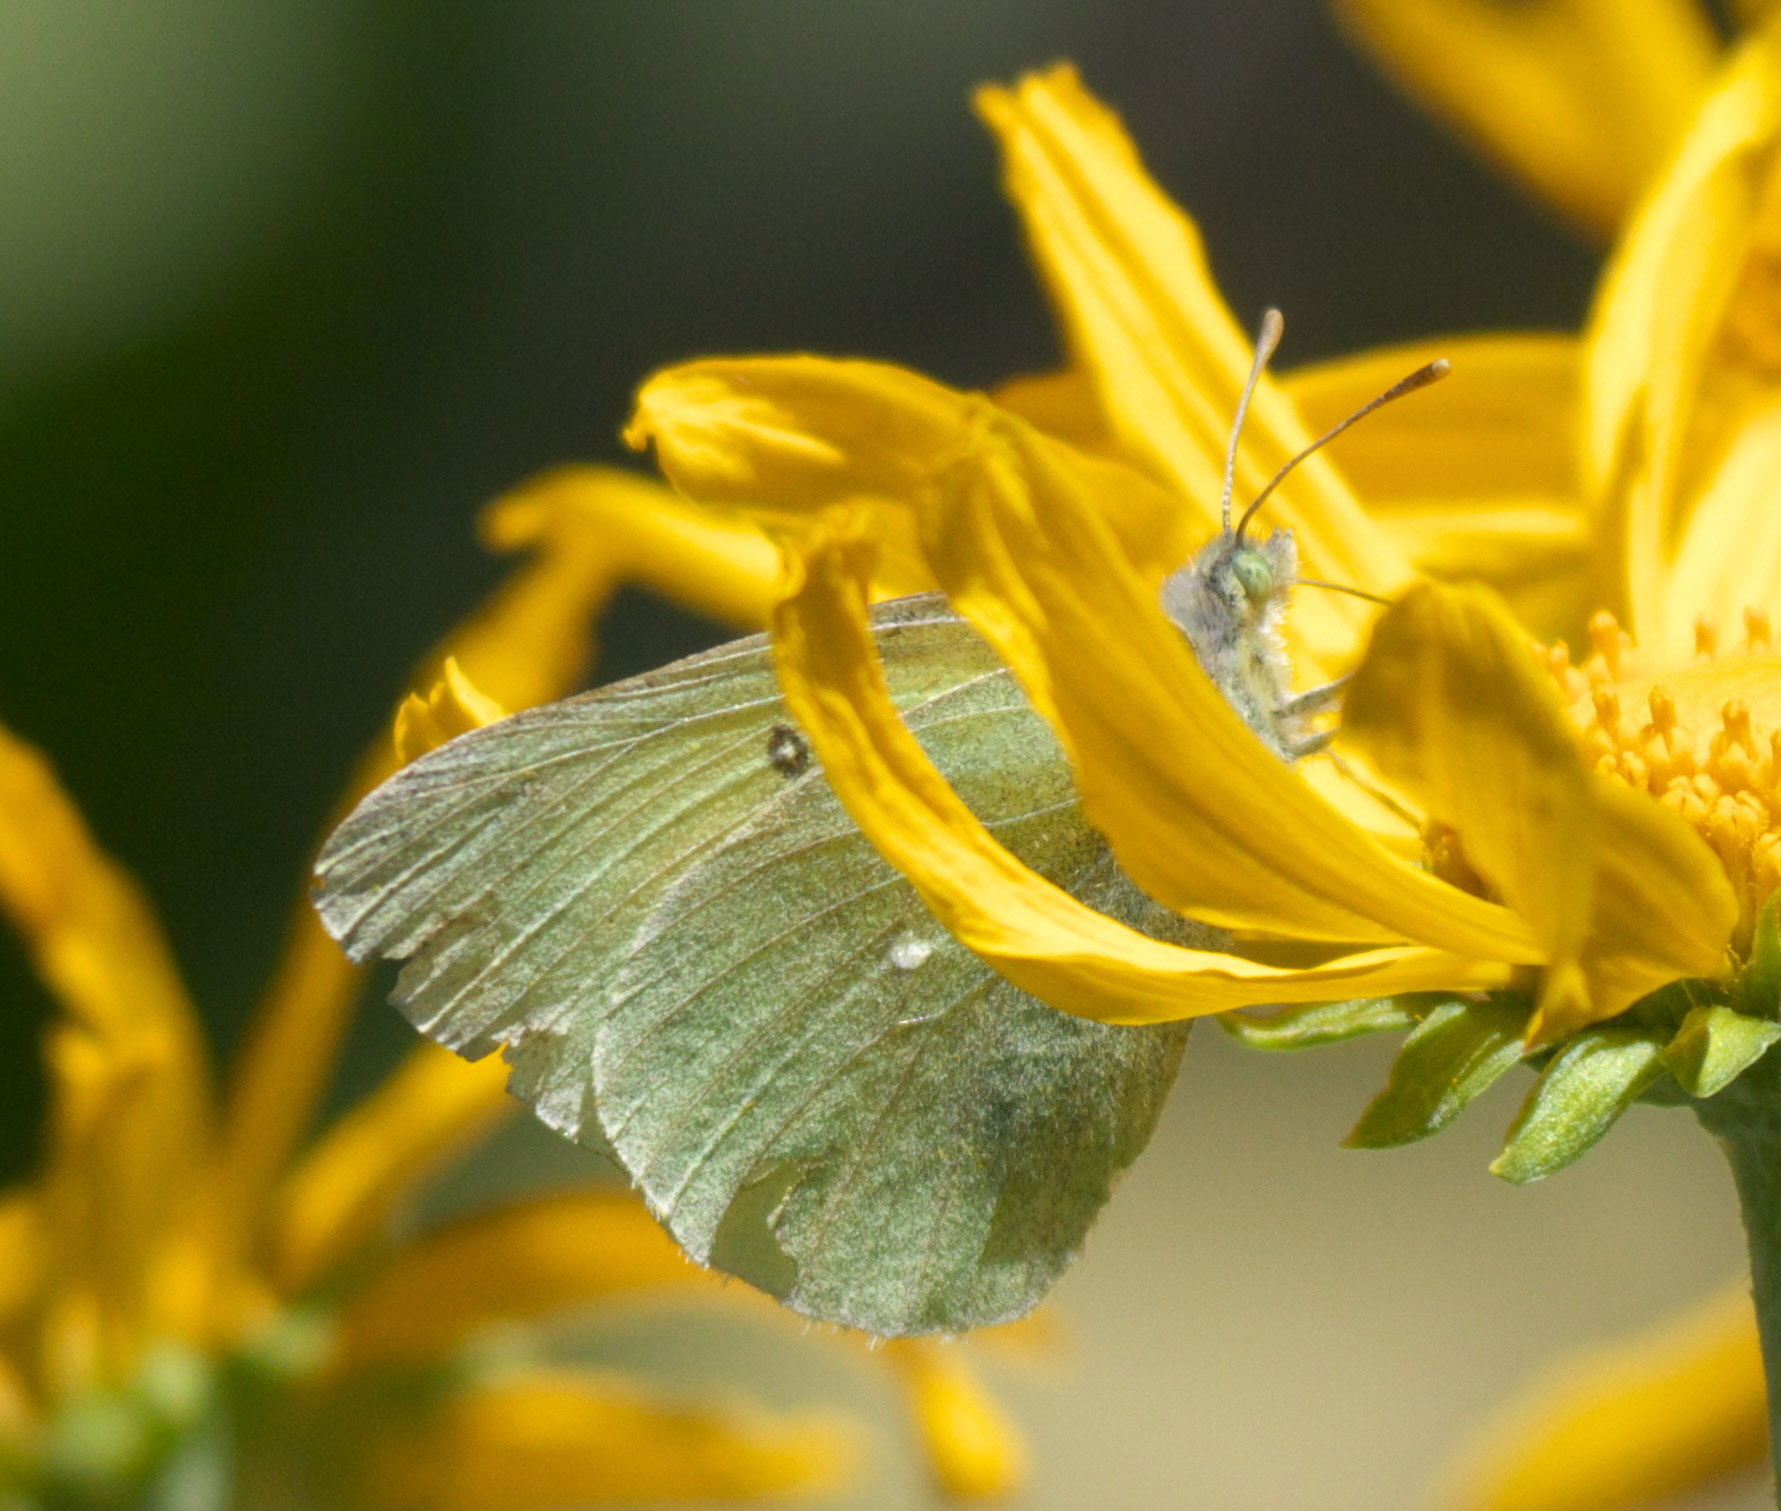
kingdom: Animalia
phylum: Arthropoda
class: Insecta
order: Lepidoptera
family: Pieridae
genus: Colias
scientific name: Colias alexandra
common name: Alexandra sulphur
